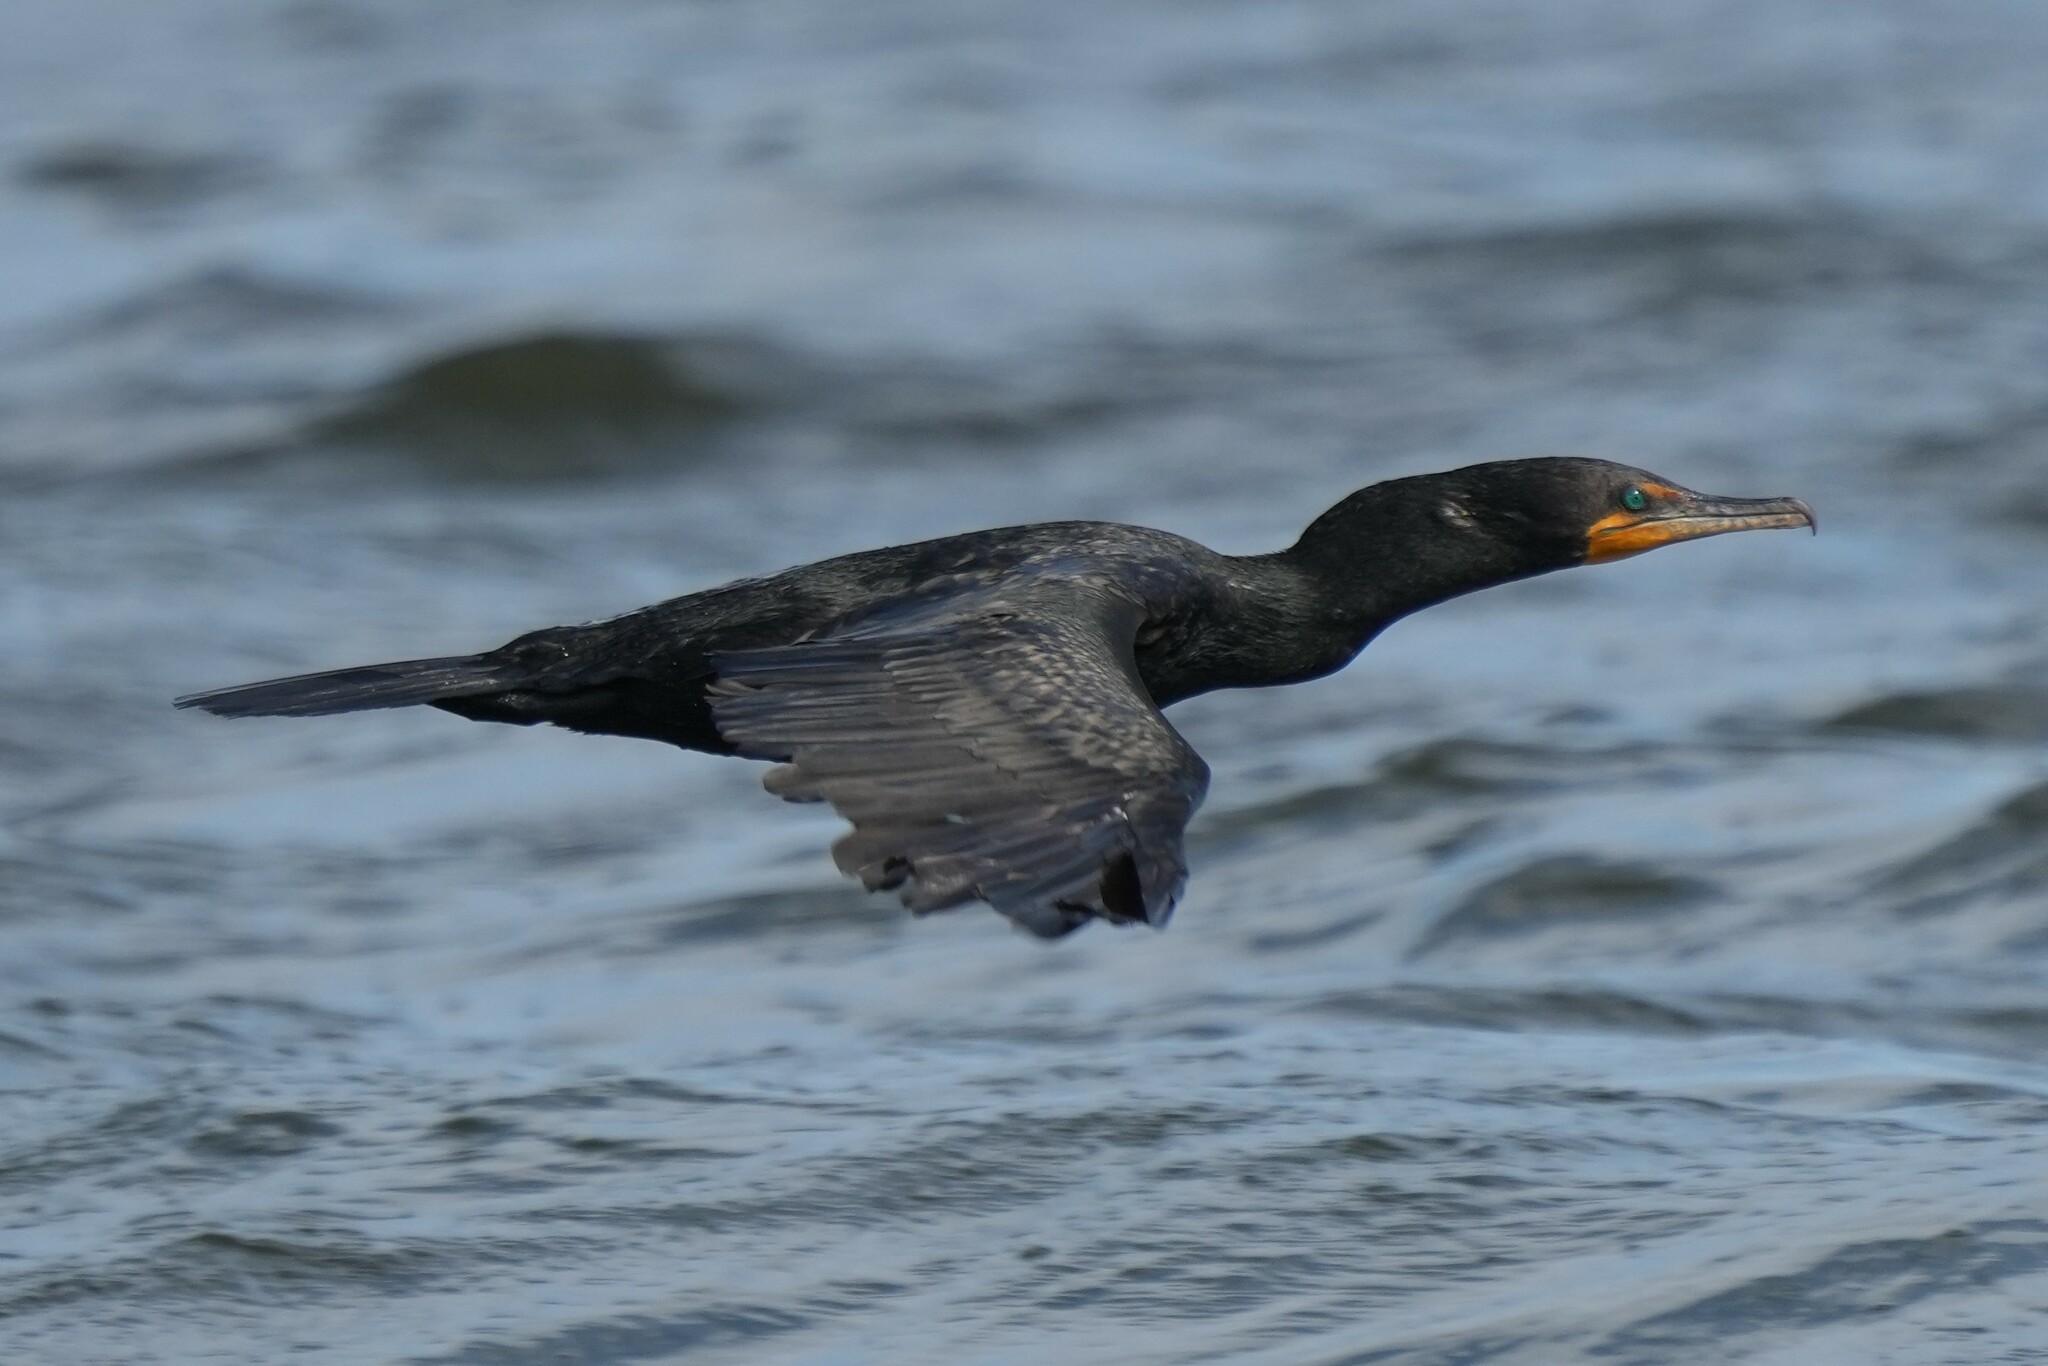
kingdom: Animalia
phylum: Chordata
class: Aves
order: Suliformes
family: Phalacrocoracidae
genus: Phalacrocorax
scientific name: Phalacrocorax auritus
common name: Double-crested cormorant
